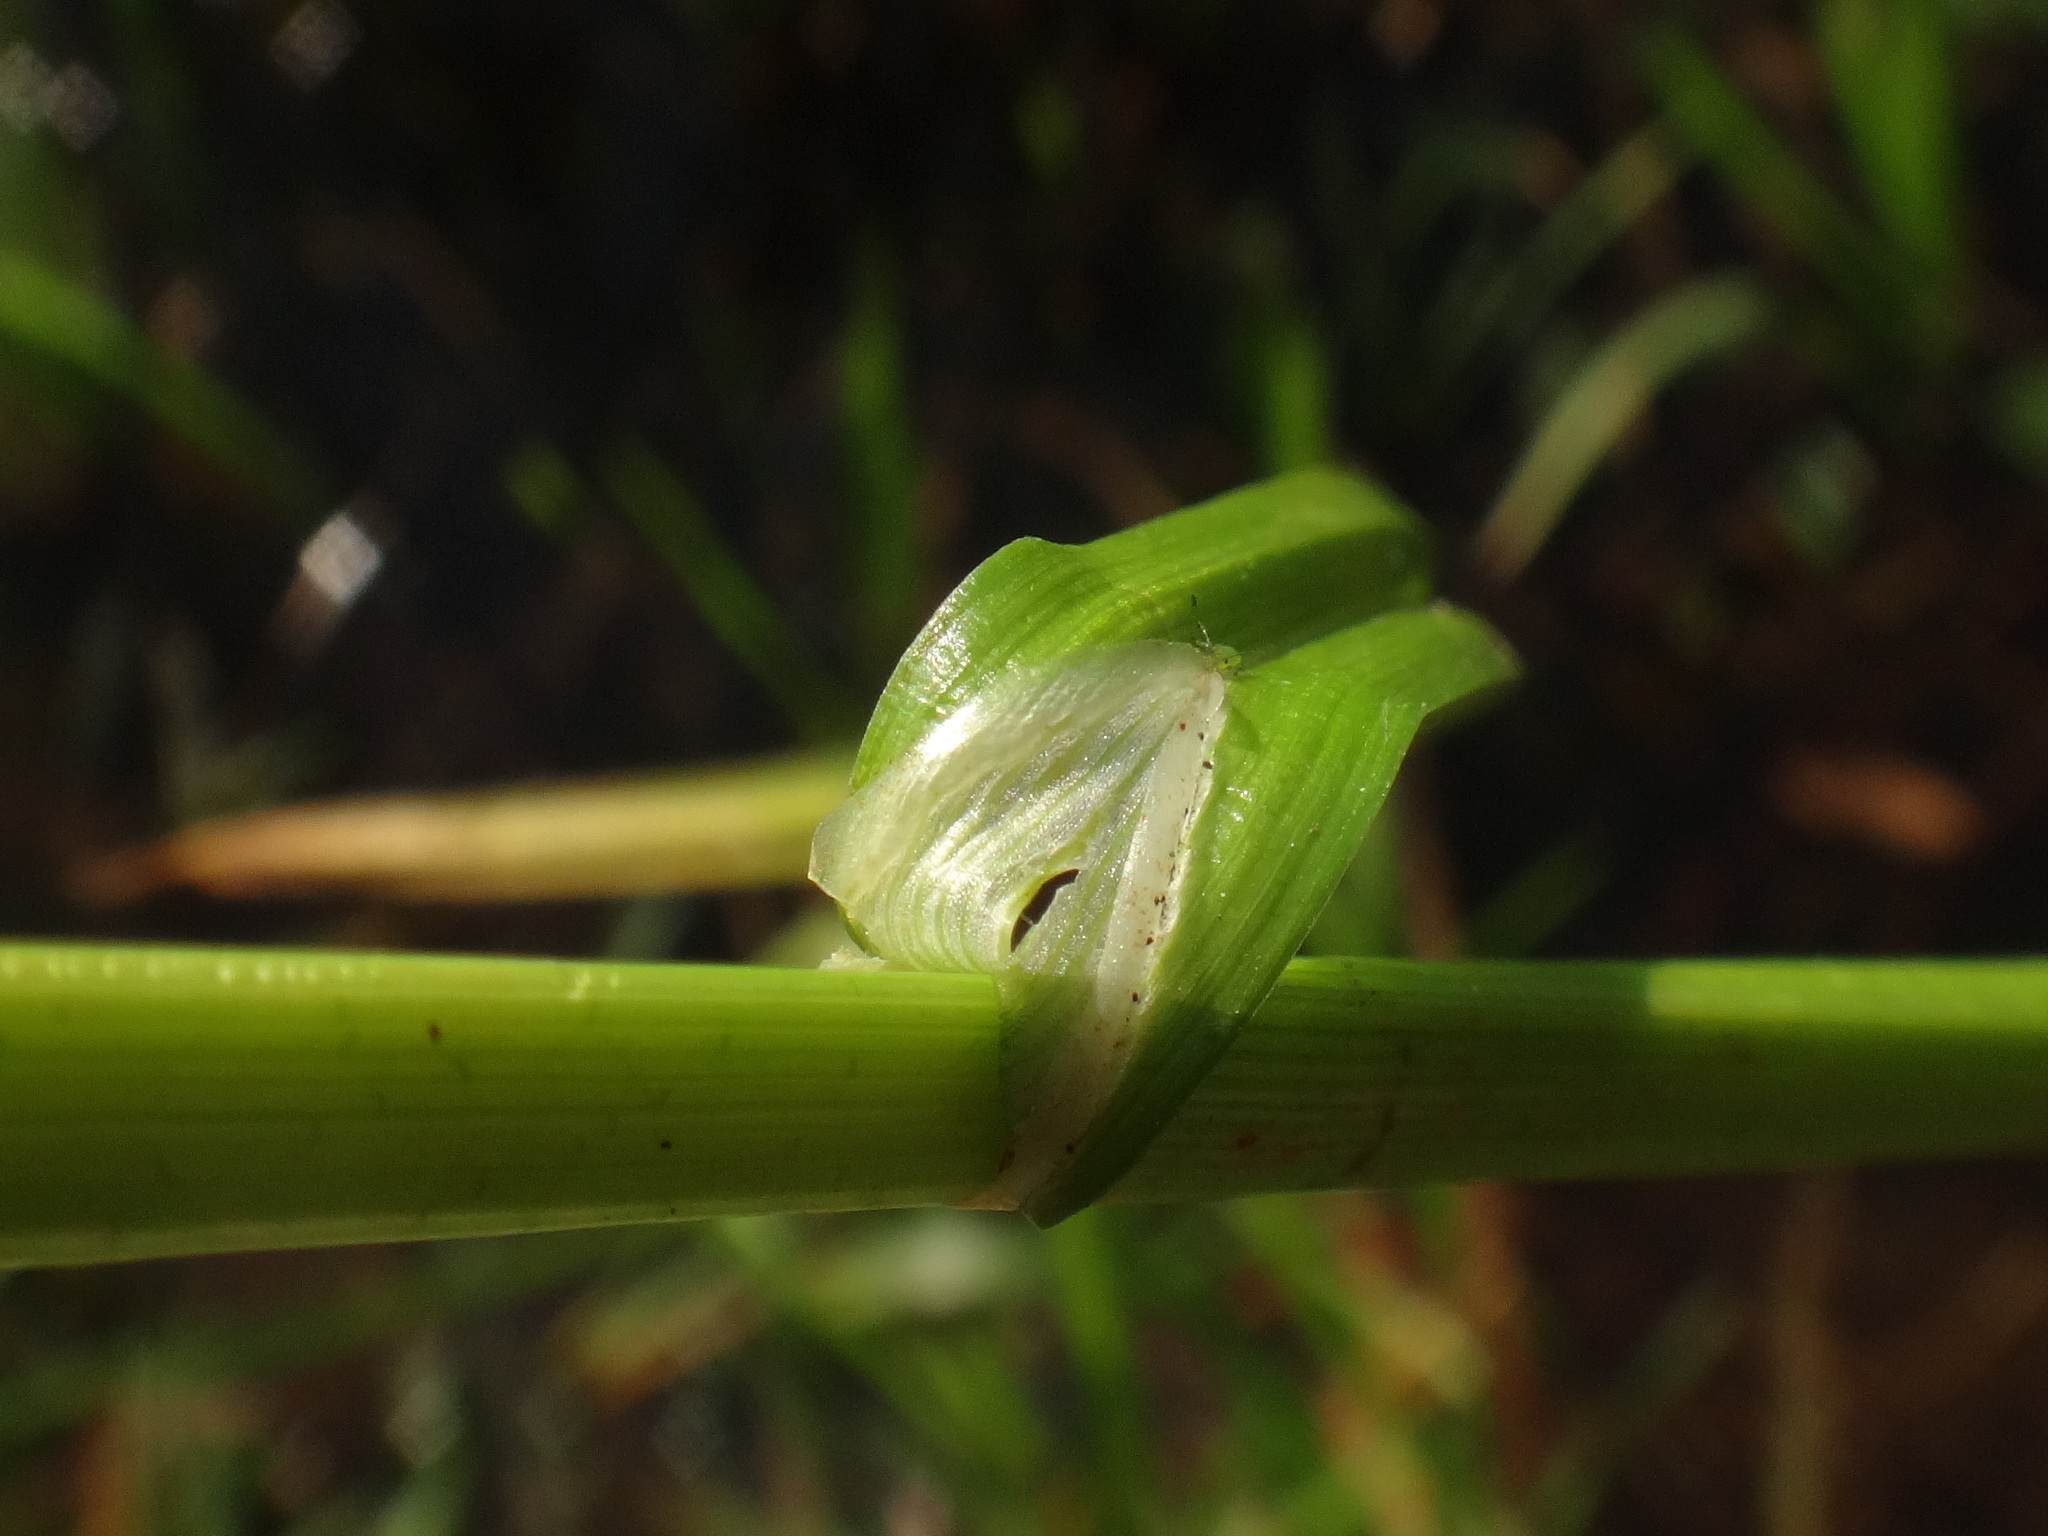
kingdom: Plantae
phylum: Tracheophyta
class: Liliopsida
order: Poales
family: Cyperaceae
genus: Carex
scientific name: Carex otrubae
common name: False fox-sedge
